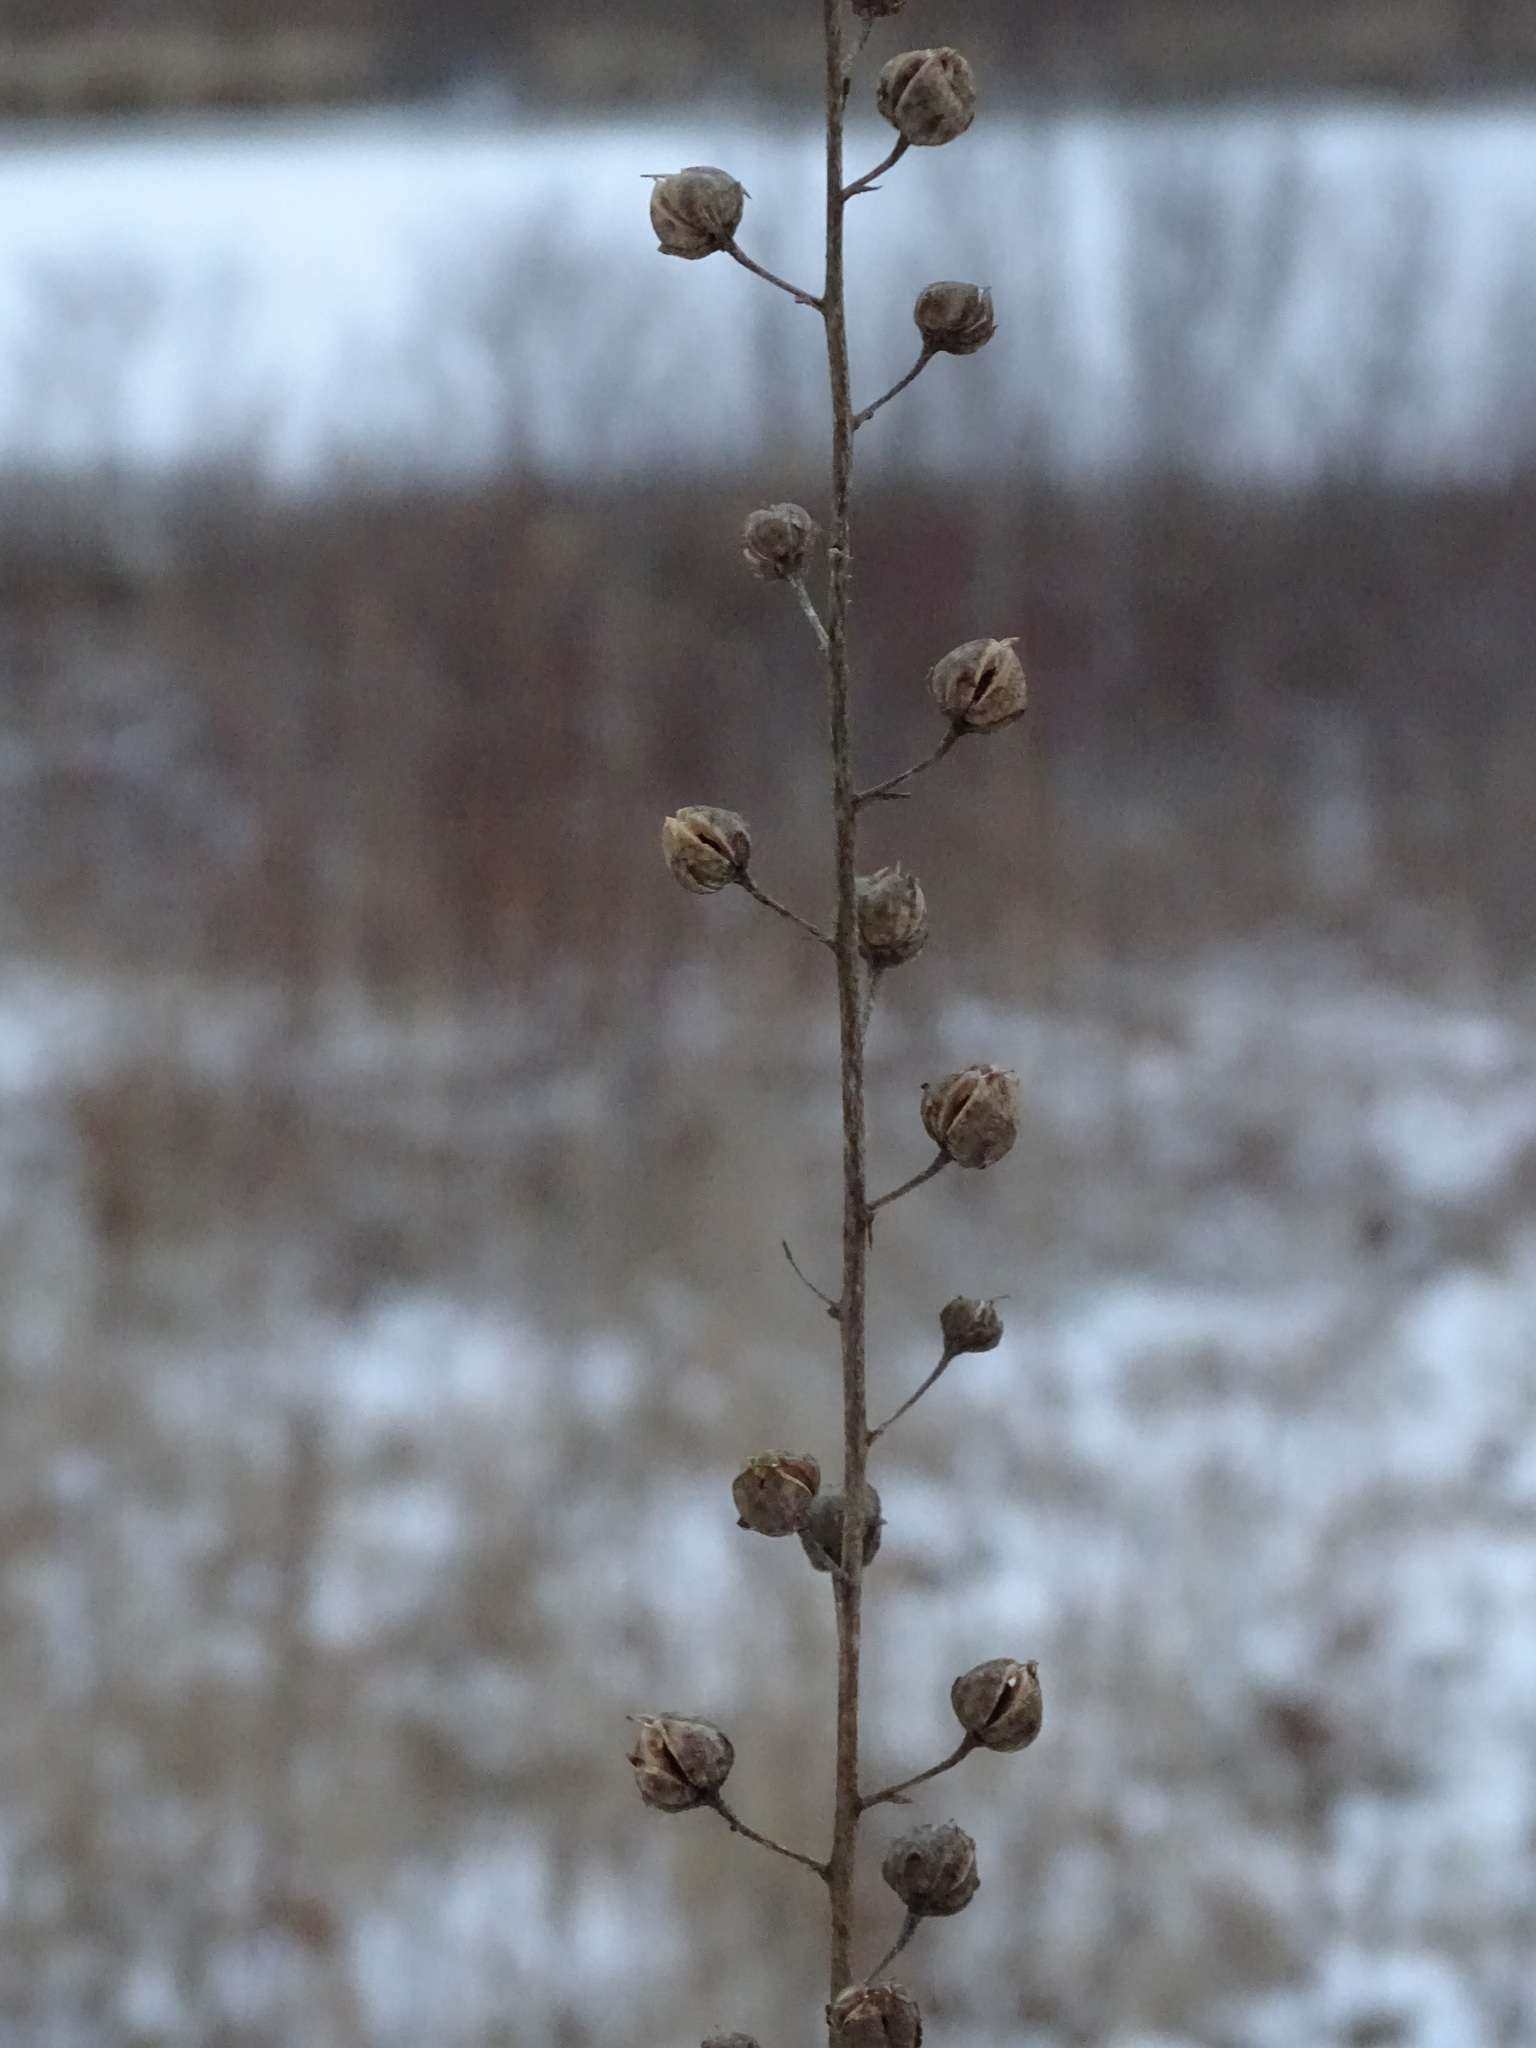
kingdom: Plantae
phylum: Tracheophyta
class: Magnoliopsida
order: Lamiales
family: Scrophulariaceae
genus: Verbascum
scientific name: Verbascum blattaria
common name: Moth mullein
